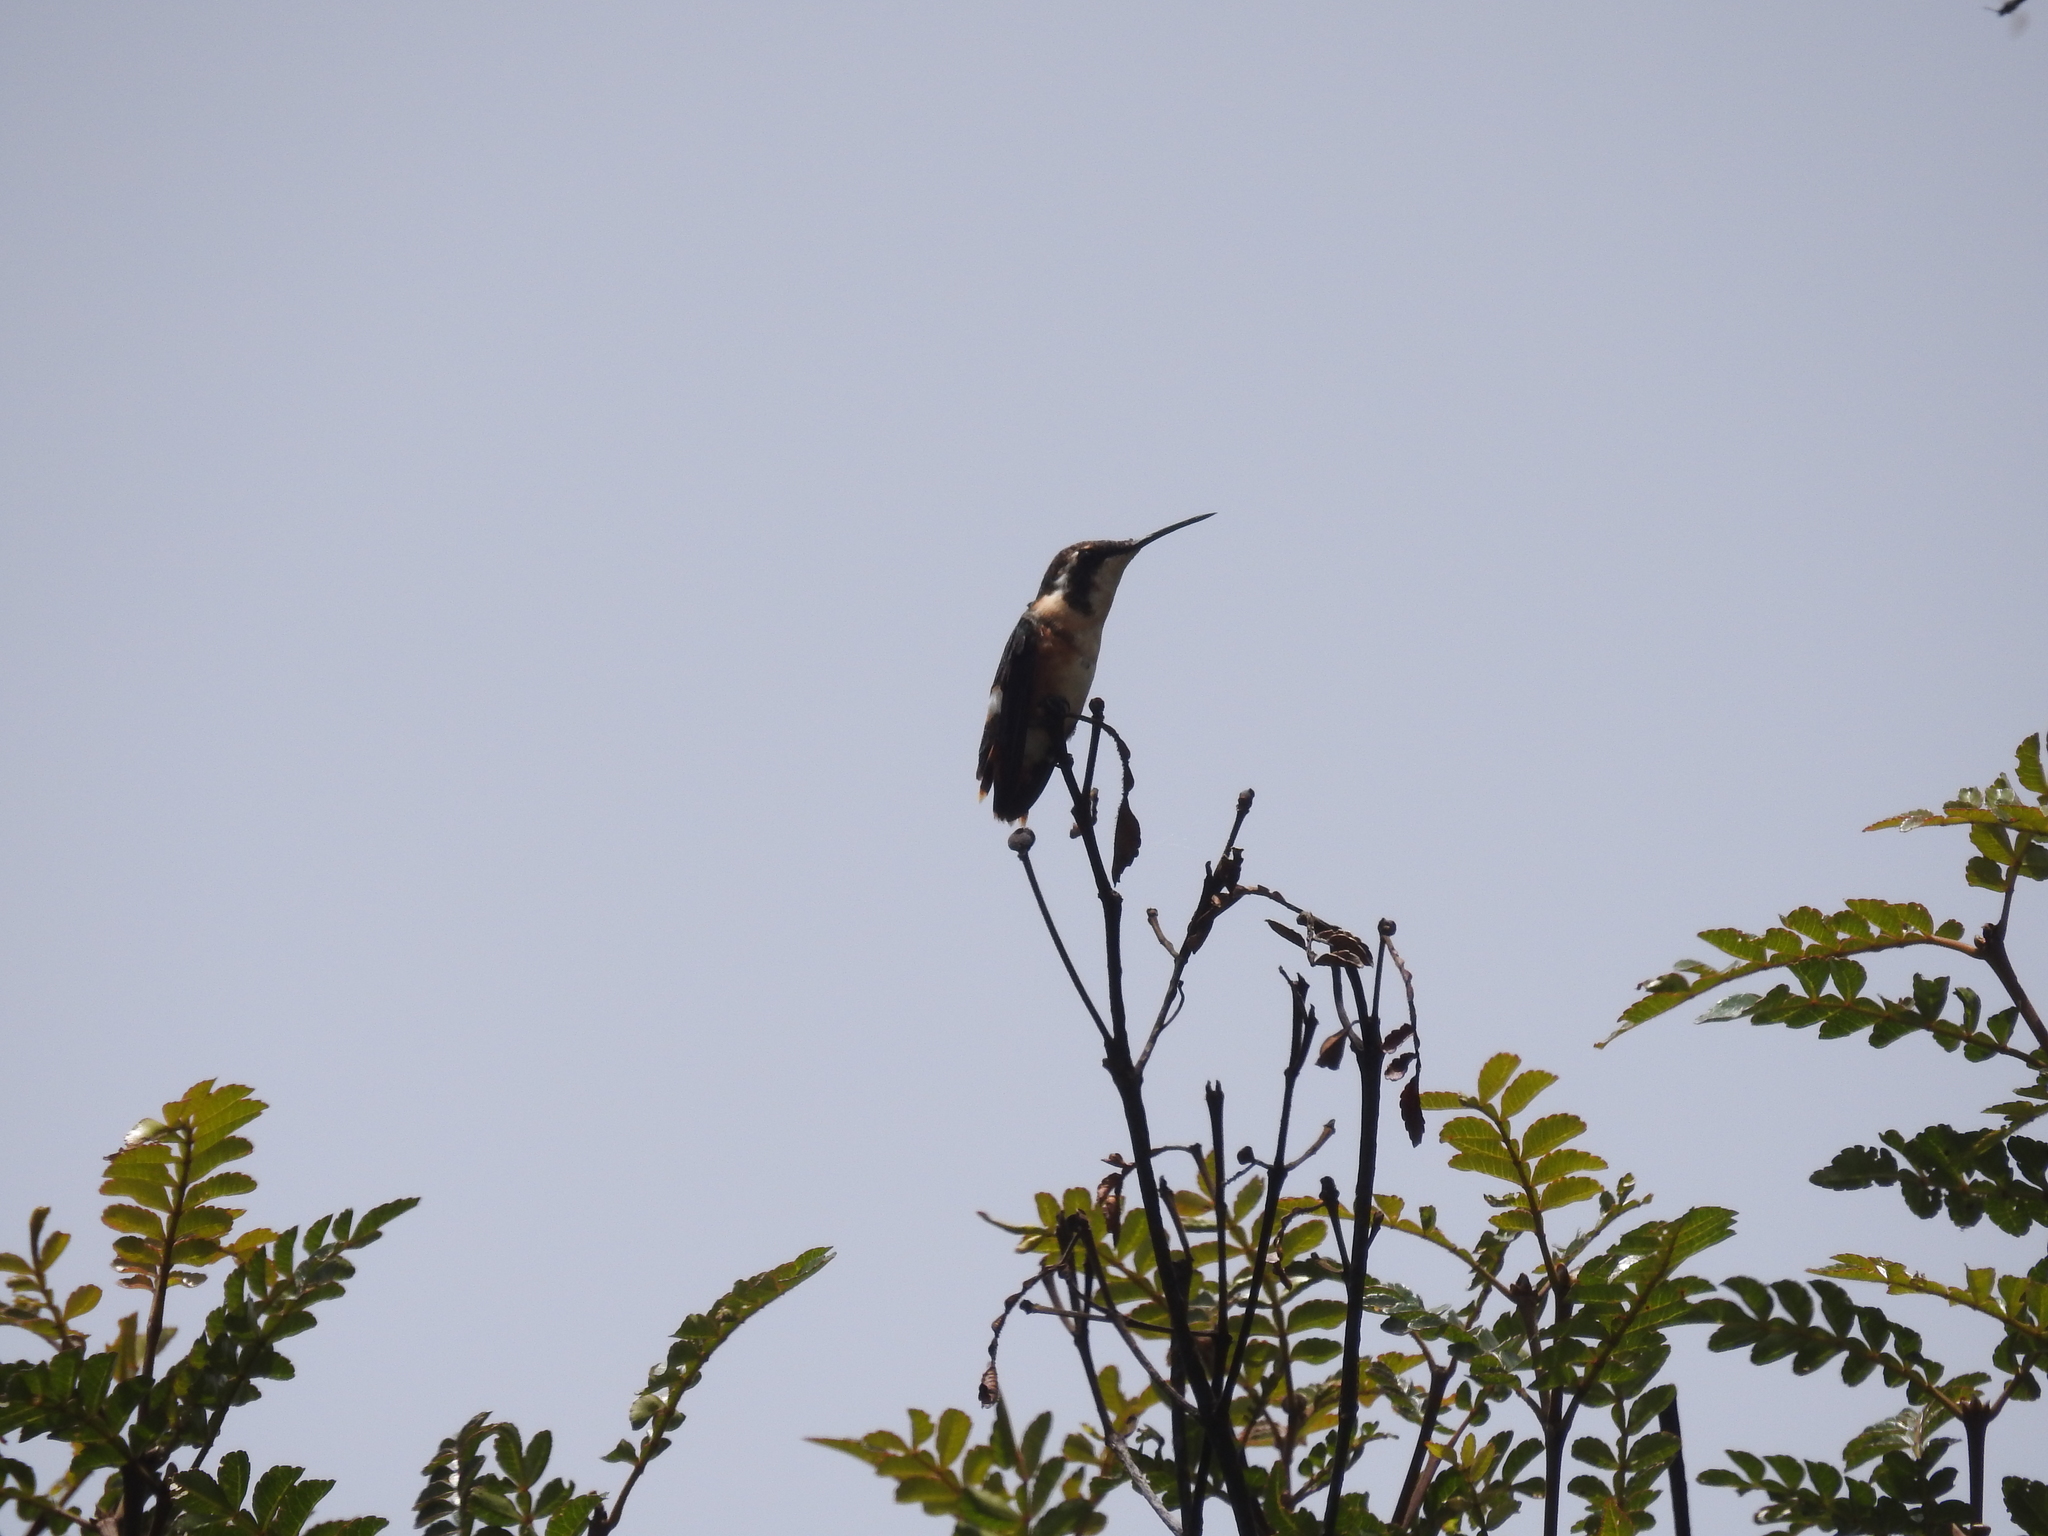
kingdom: Animalia
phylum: Chordata
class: Aves
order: Apodiformes
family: Trochilidae
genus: Chaetocercus
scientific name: Chaetocercus mulsant
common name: White-bellied woodstar
